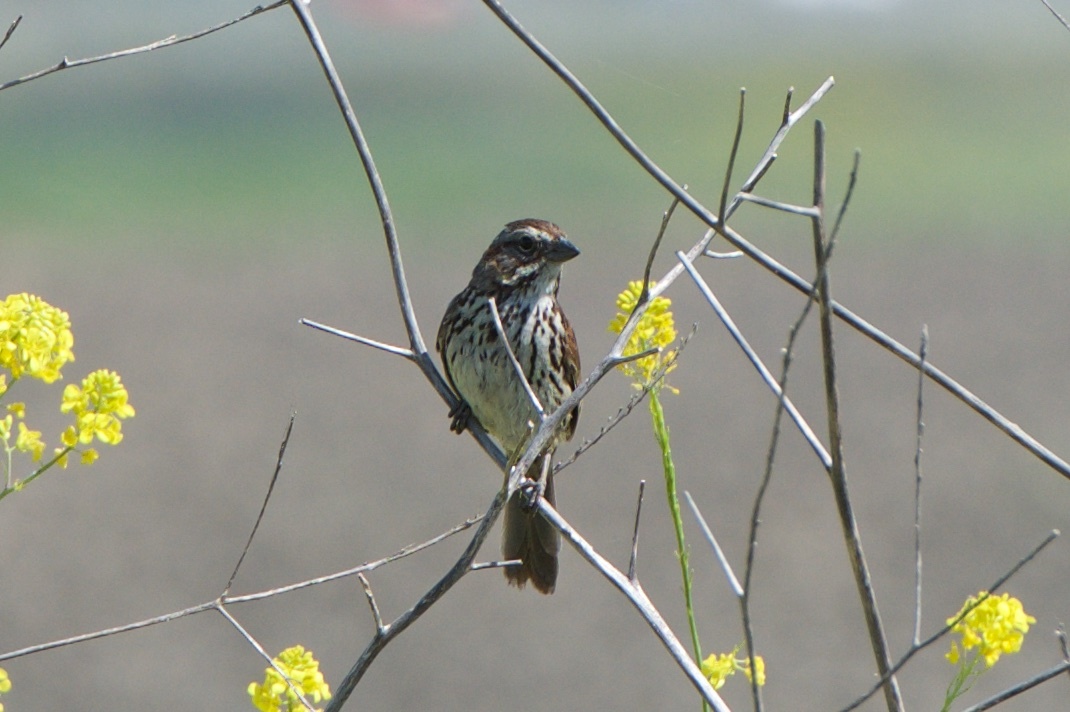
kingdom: Animalia
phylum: Chordata
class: Aves
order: Passeriformes
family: Passerellidae
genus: Melospiza
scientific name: Melospiza melodia
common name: Song sparrow
